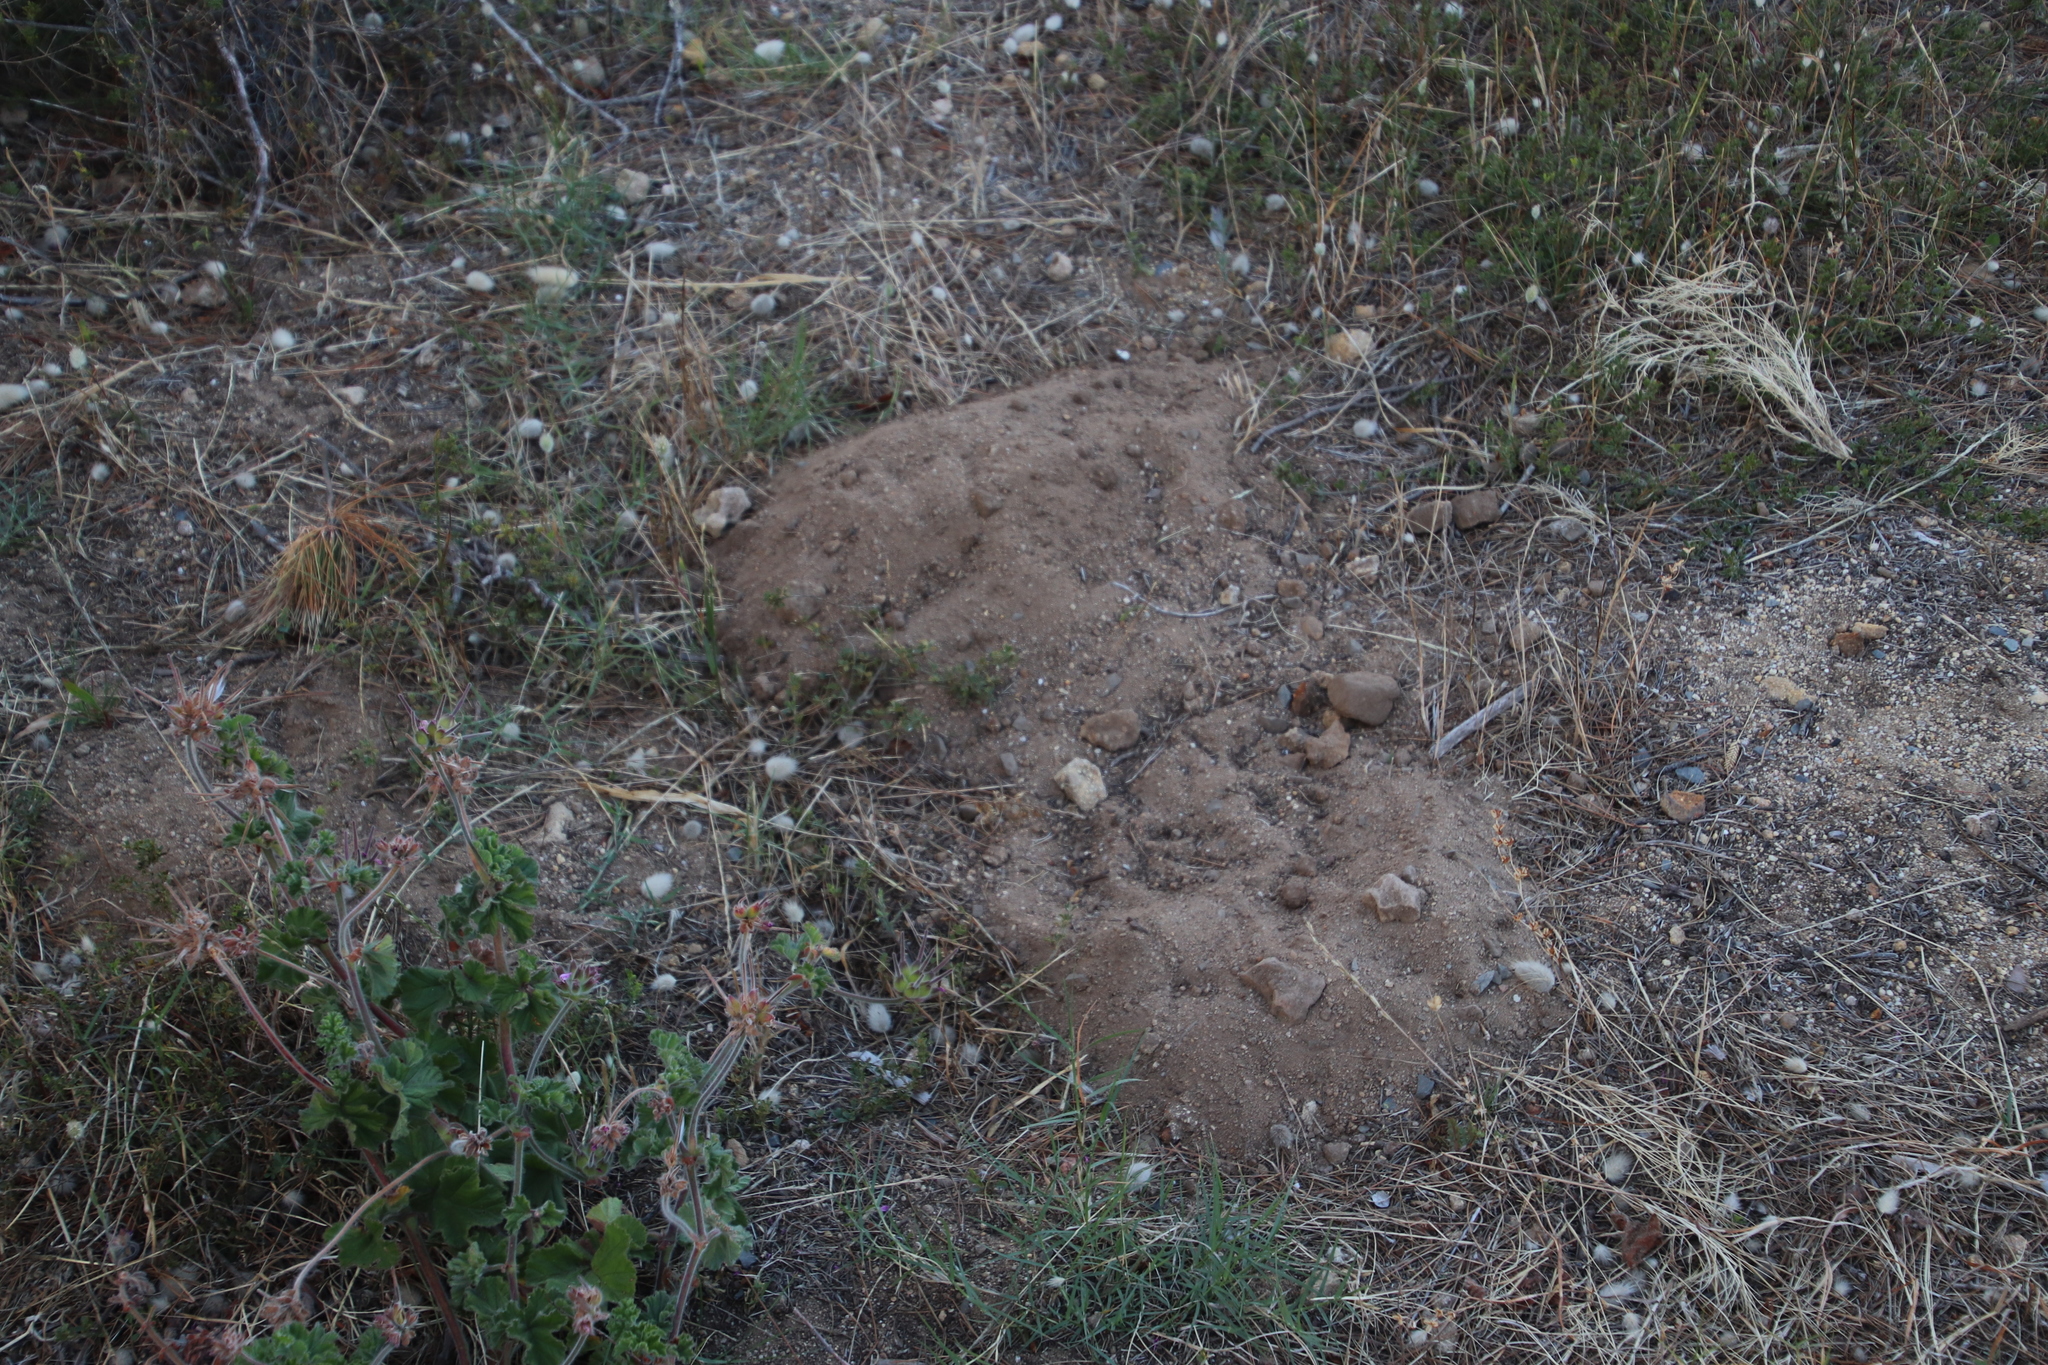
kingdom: Animalia
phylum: Chordata
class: Mammalia
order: Rodentia
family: Bathyergidae
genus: Bathyergus
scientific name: Bathyergus suillus
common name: Cape dune mole rat
